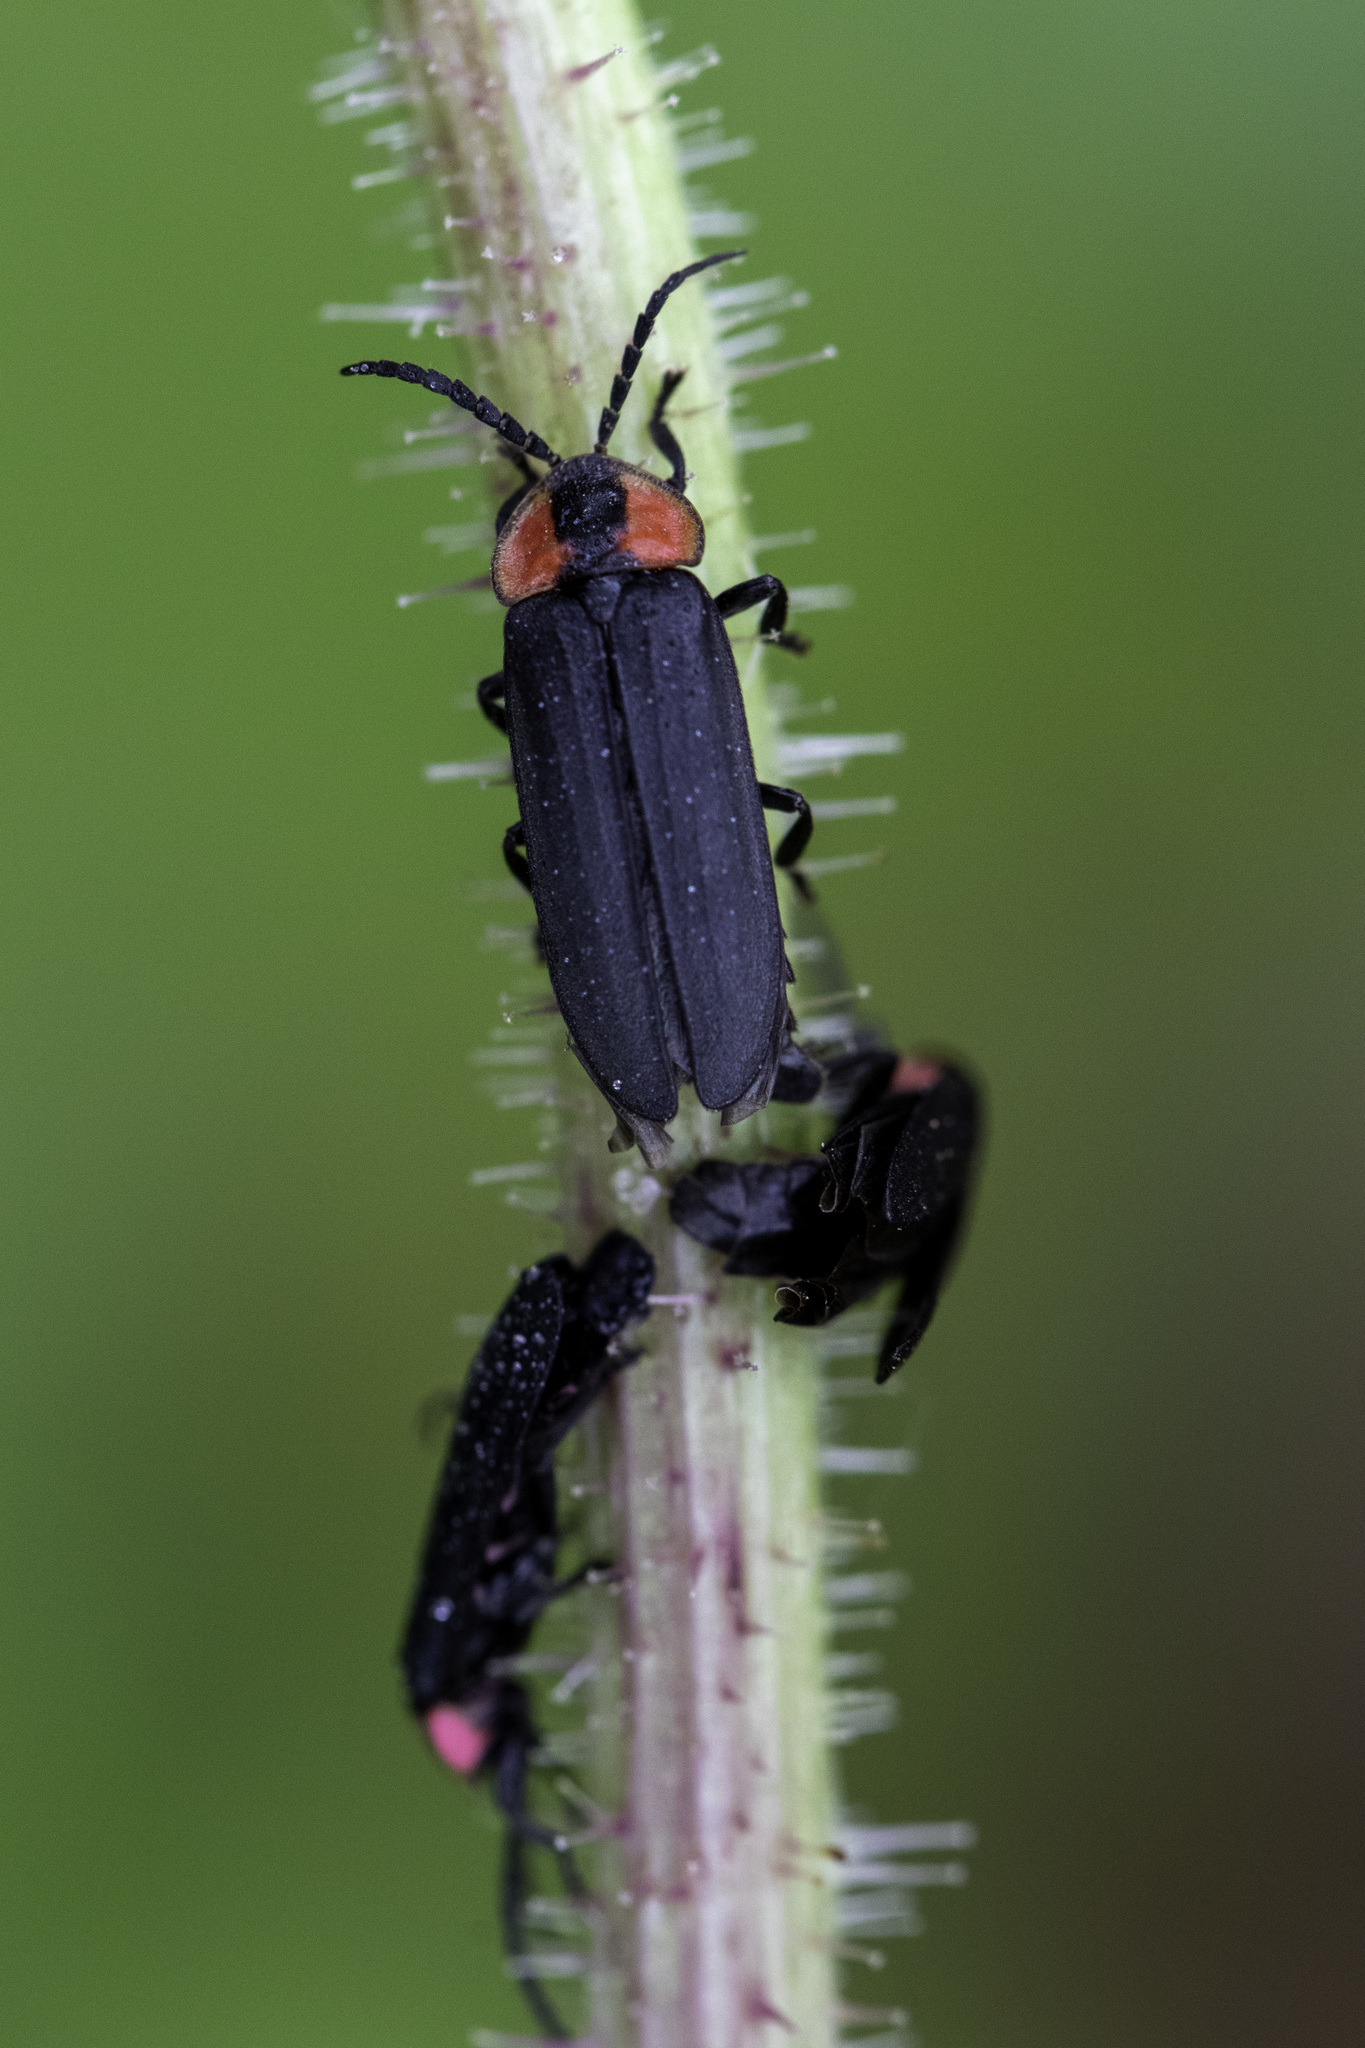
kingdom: Animalia
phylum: Arthropoda
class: Insecta
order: Coleoptera
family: Lampyridae
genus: Pyropyga
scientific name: Pyropyga nigricans
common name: Dark firefly
